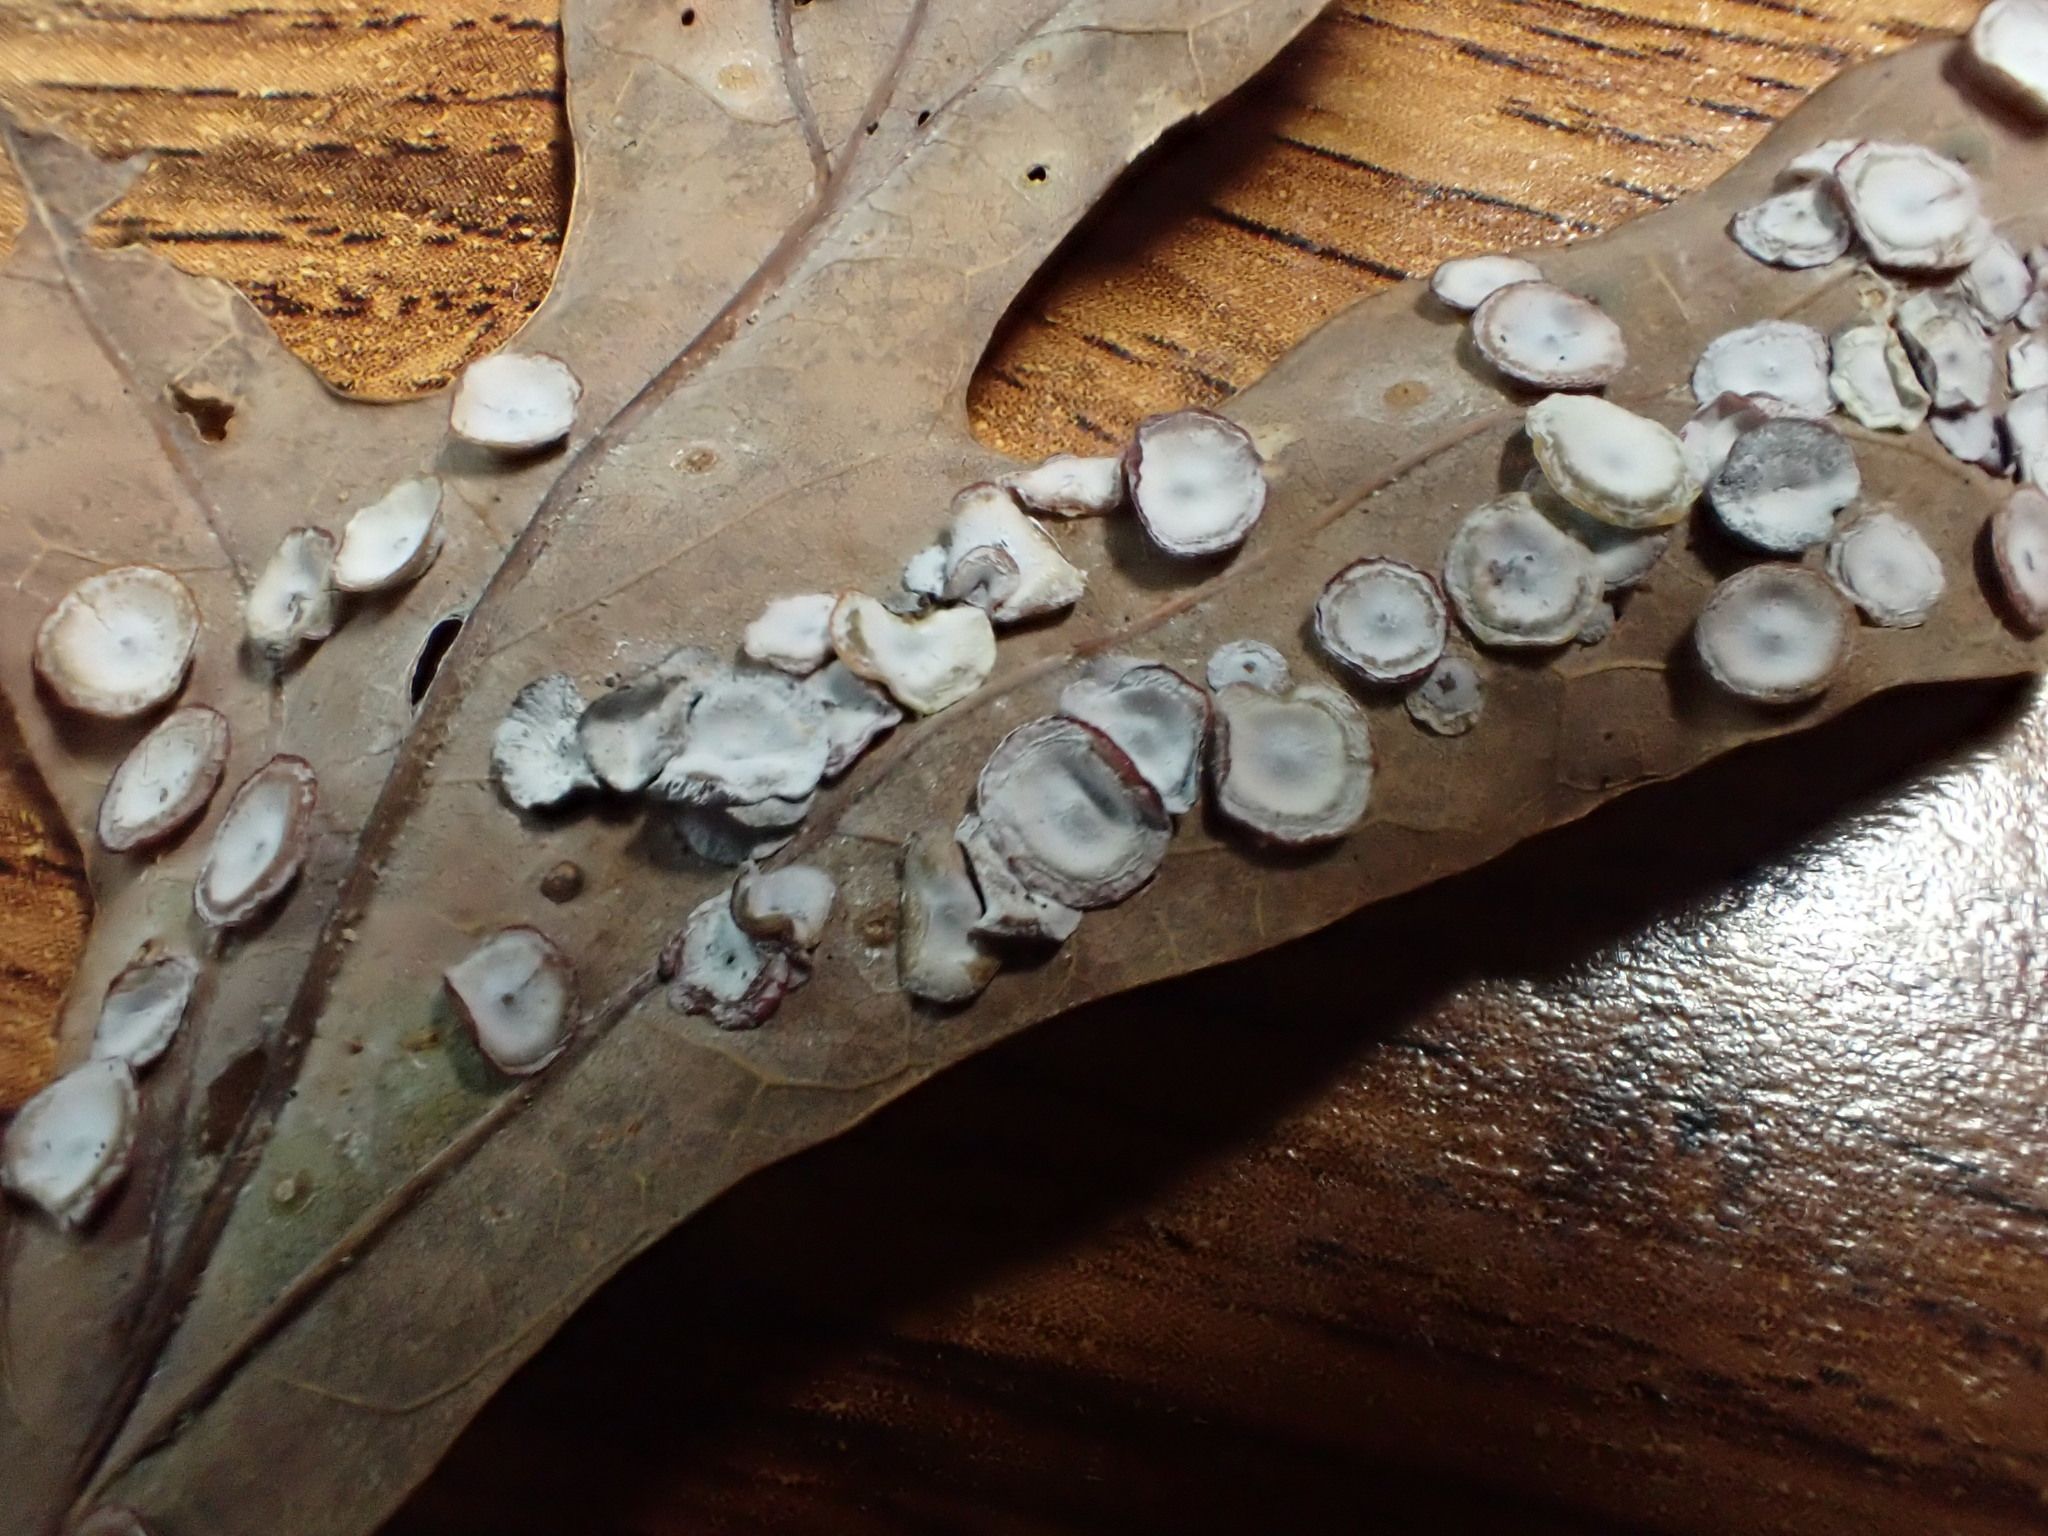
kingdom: Animalia
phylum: Arthropoda
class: Insecta
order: Hymenoptera
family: Cynipidae
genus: Phylloteras
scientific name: Phylloteras poculum
